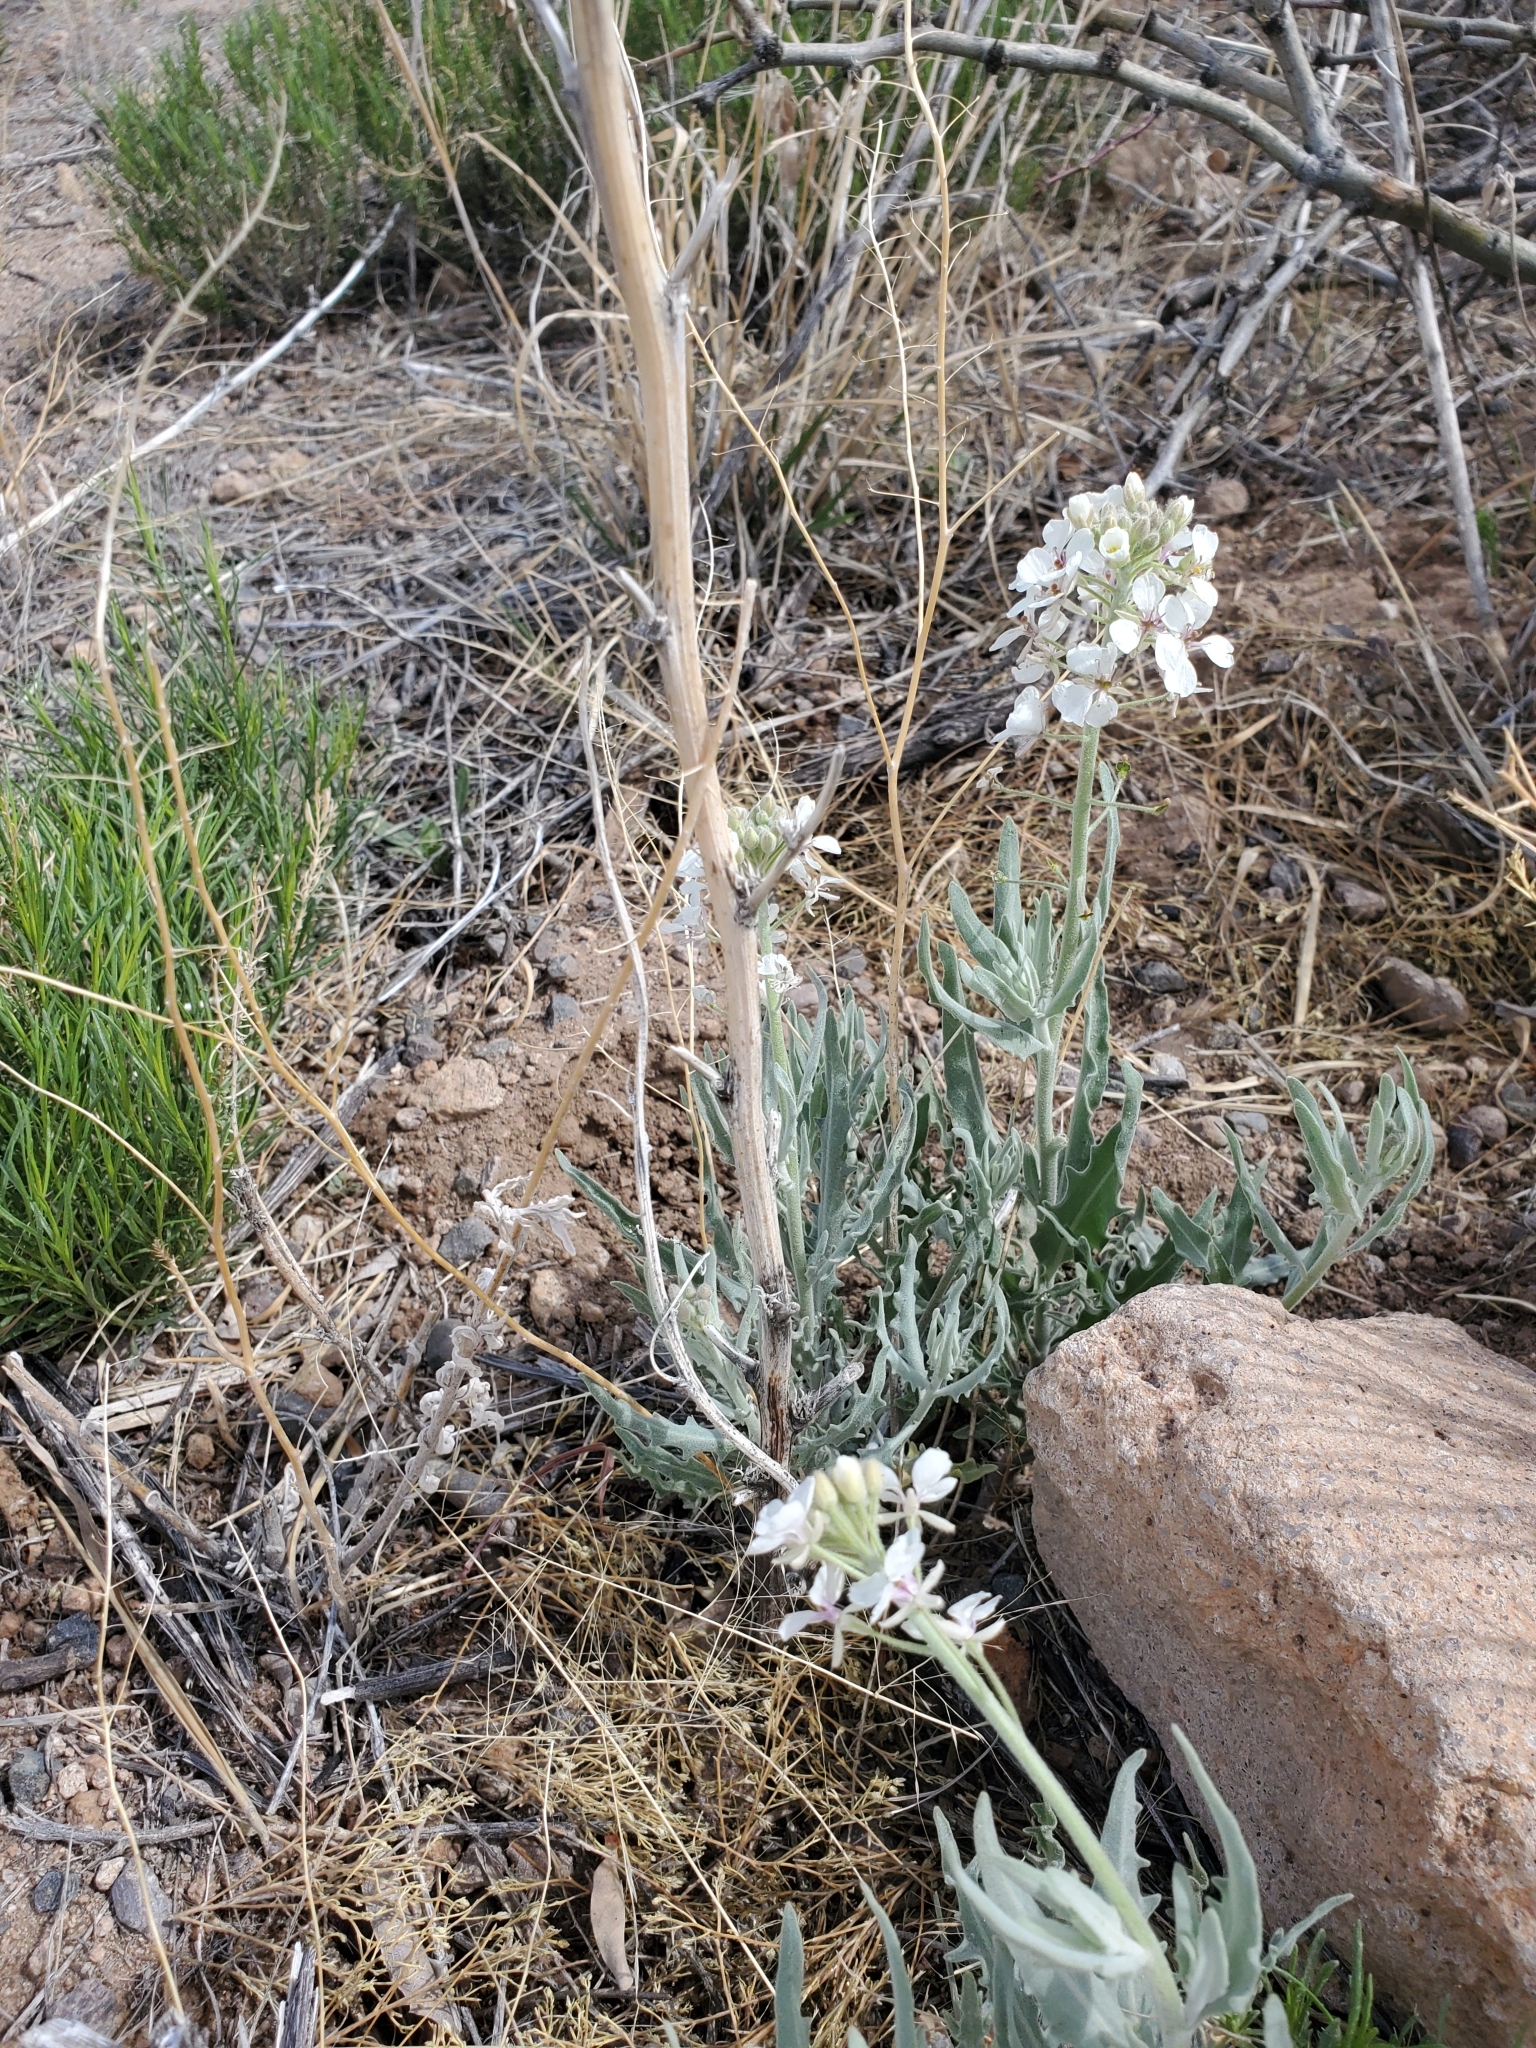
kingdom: Plantae
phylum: Tracheophyta
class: Magnoliopsida
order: Brassicales
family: Brassicaceae
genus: Dimorphocarpa
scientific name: Dimorphocarpa wislizenii
